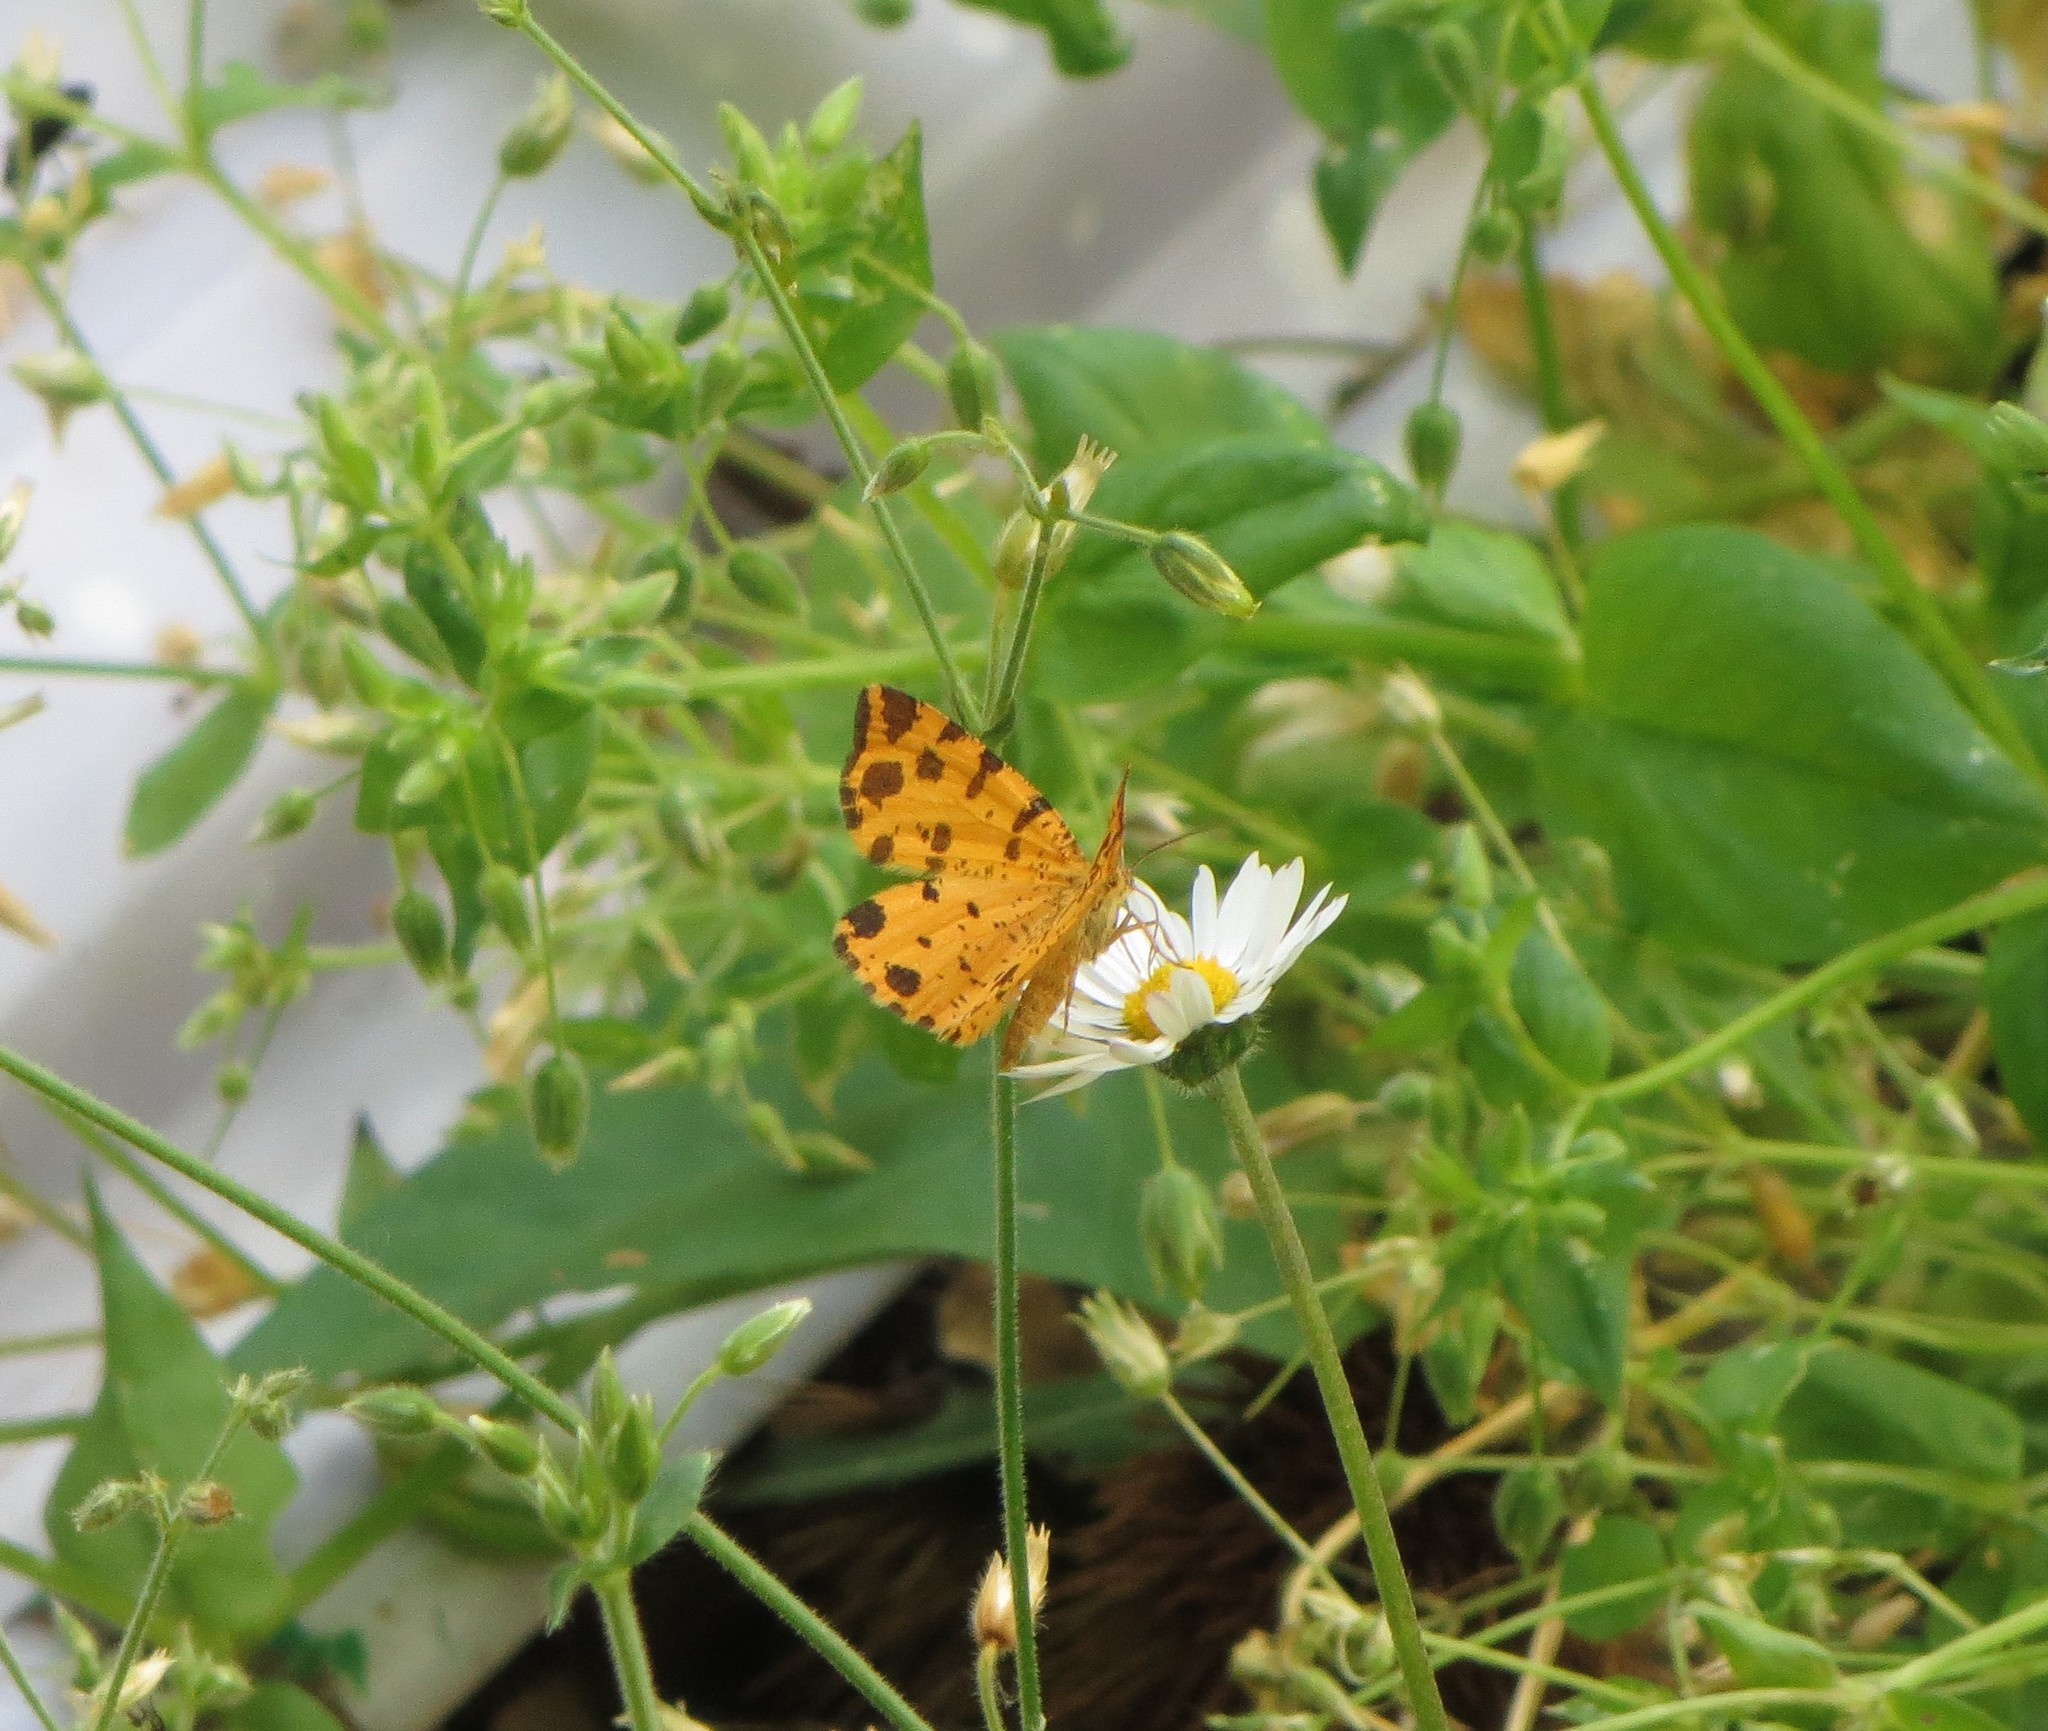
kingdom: Animalia
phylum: Arthropoda
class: Insecta
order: Lepidoptera
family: Geometridae
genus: Pseudopanthera
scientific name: Pseudopanthera macularia
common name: Speckled yellow
